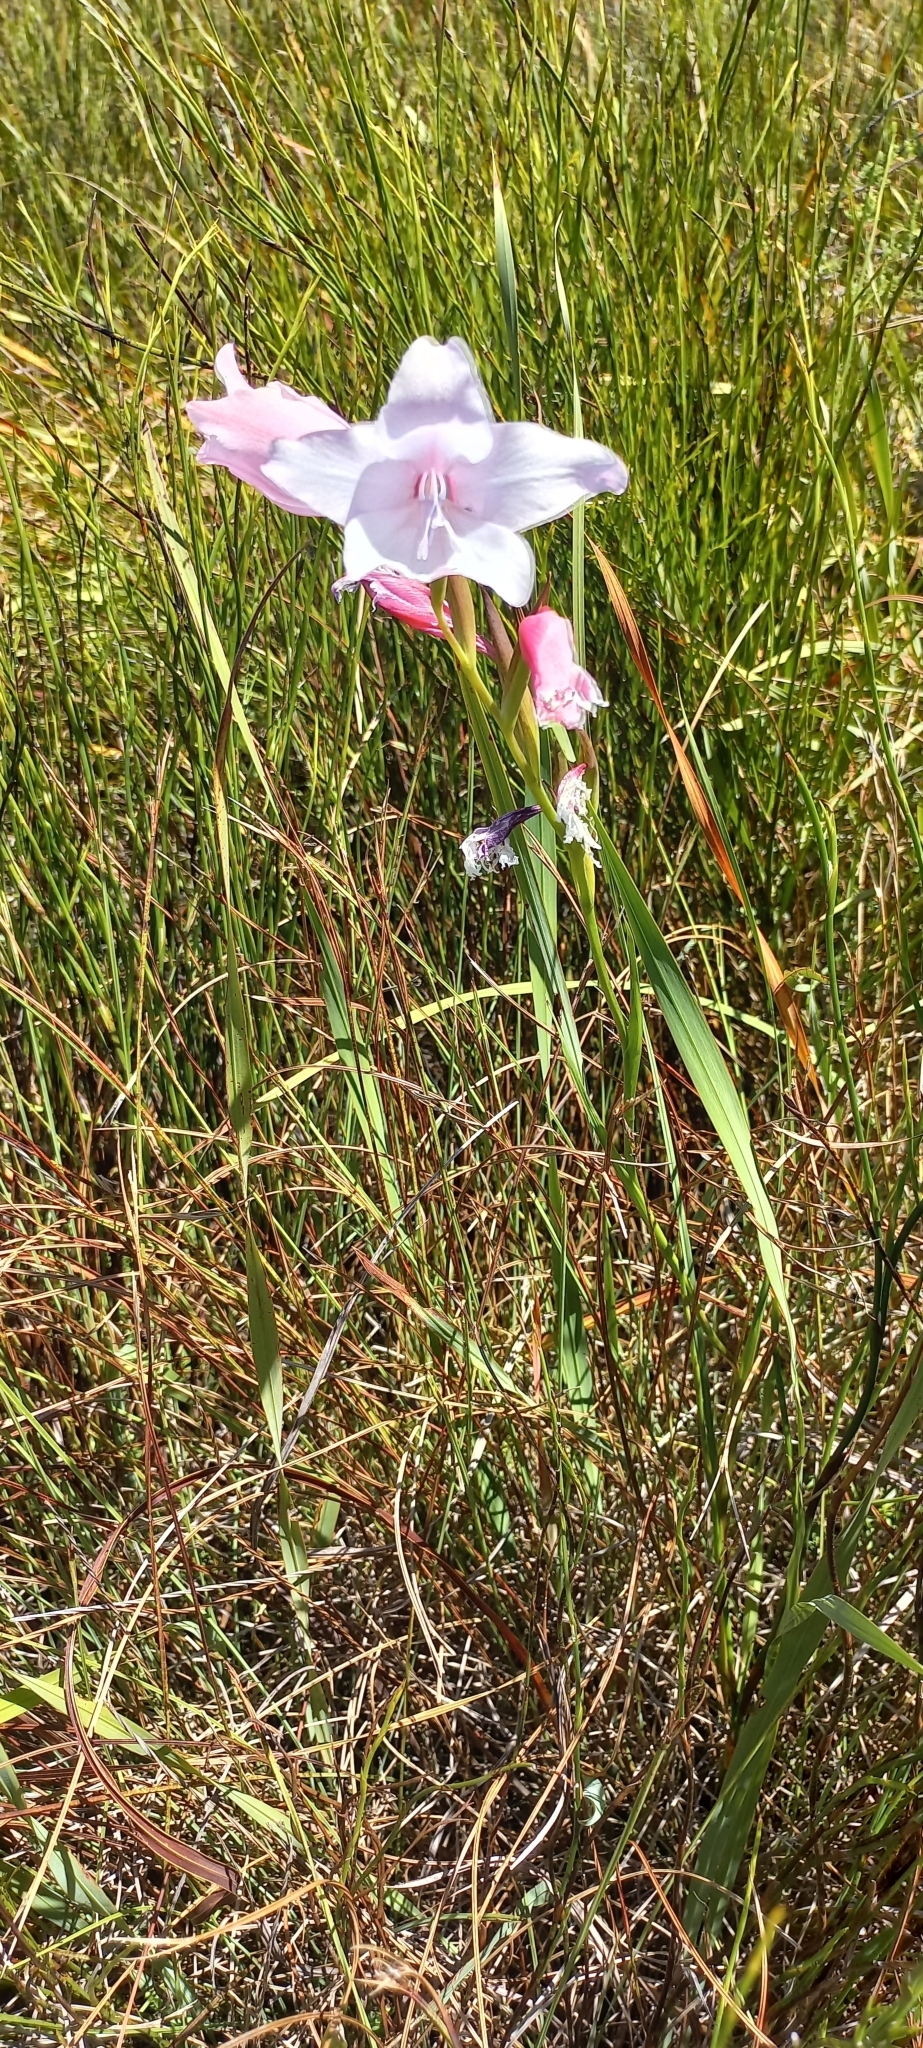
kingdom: Plantae
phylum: Tracheophyta
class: Liliopsida
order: Asparagales
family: Iridaceae
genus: Gladiolus
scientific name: Gladiolus carneus
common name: Painted-lady
